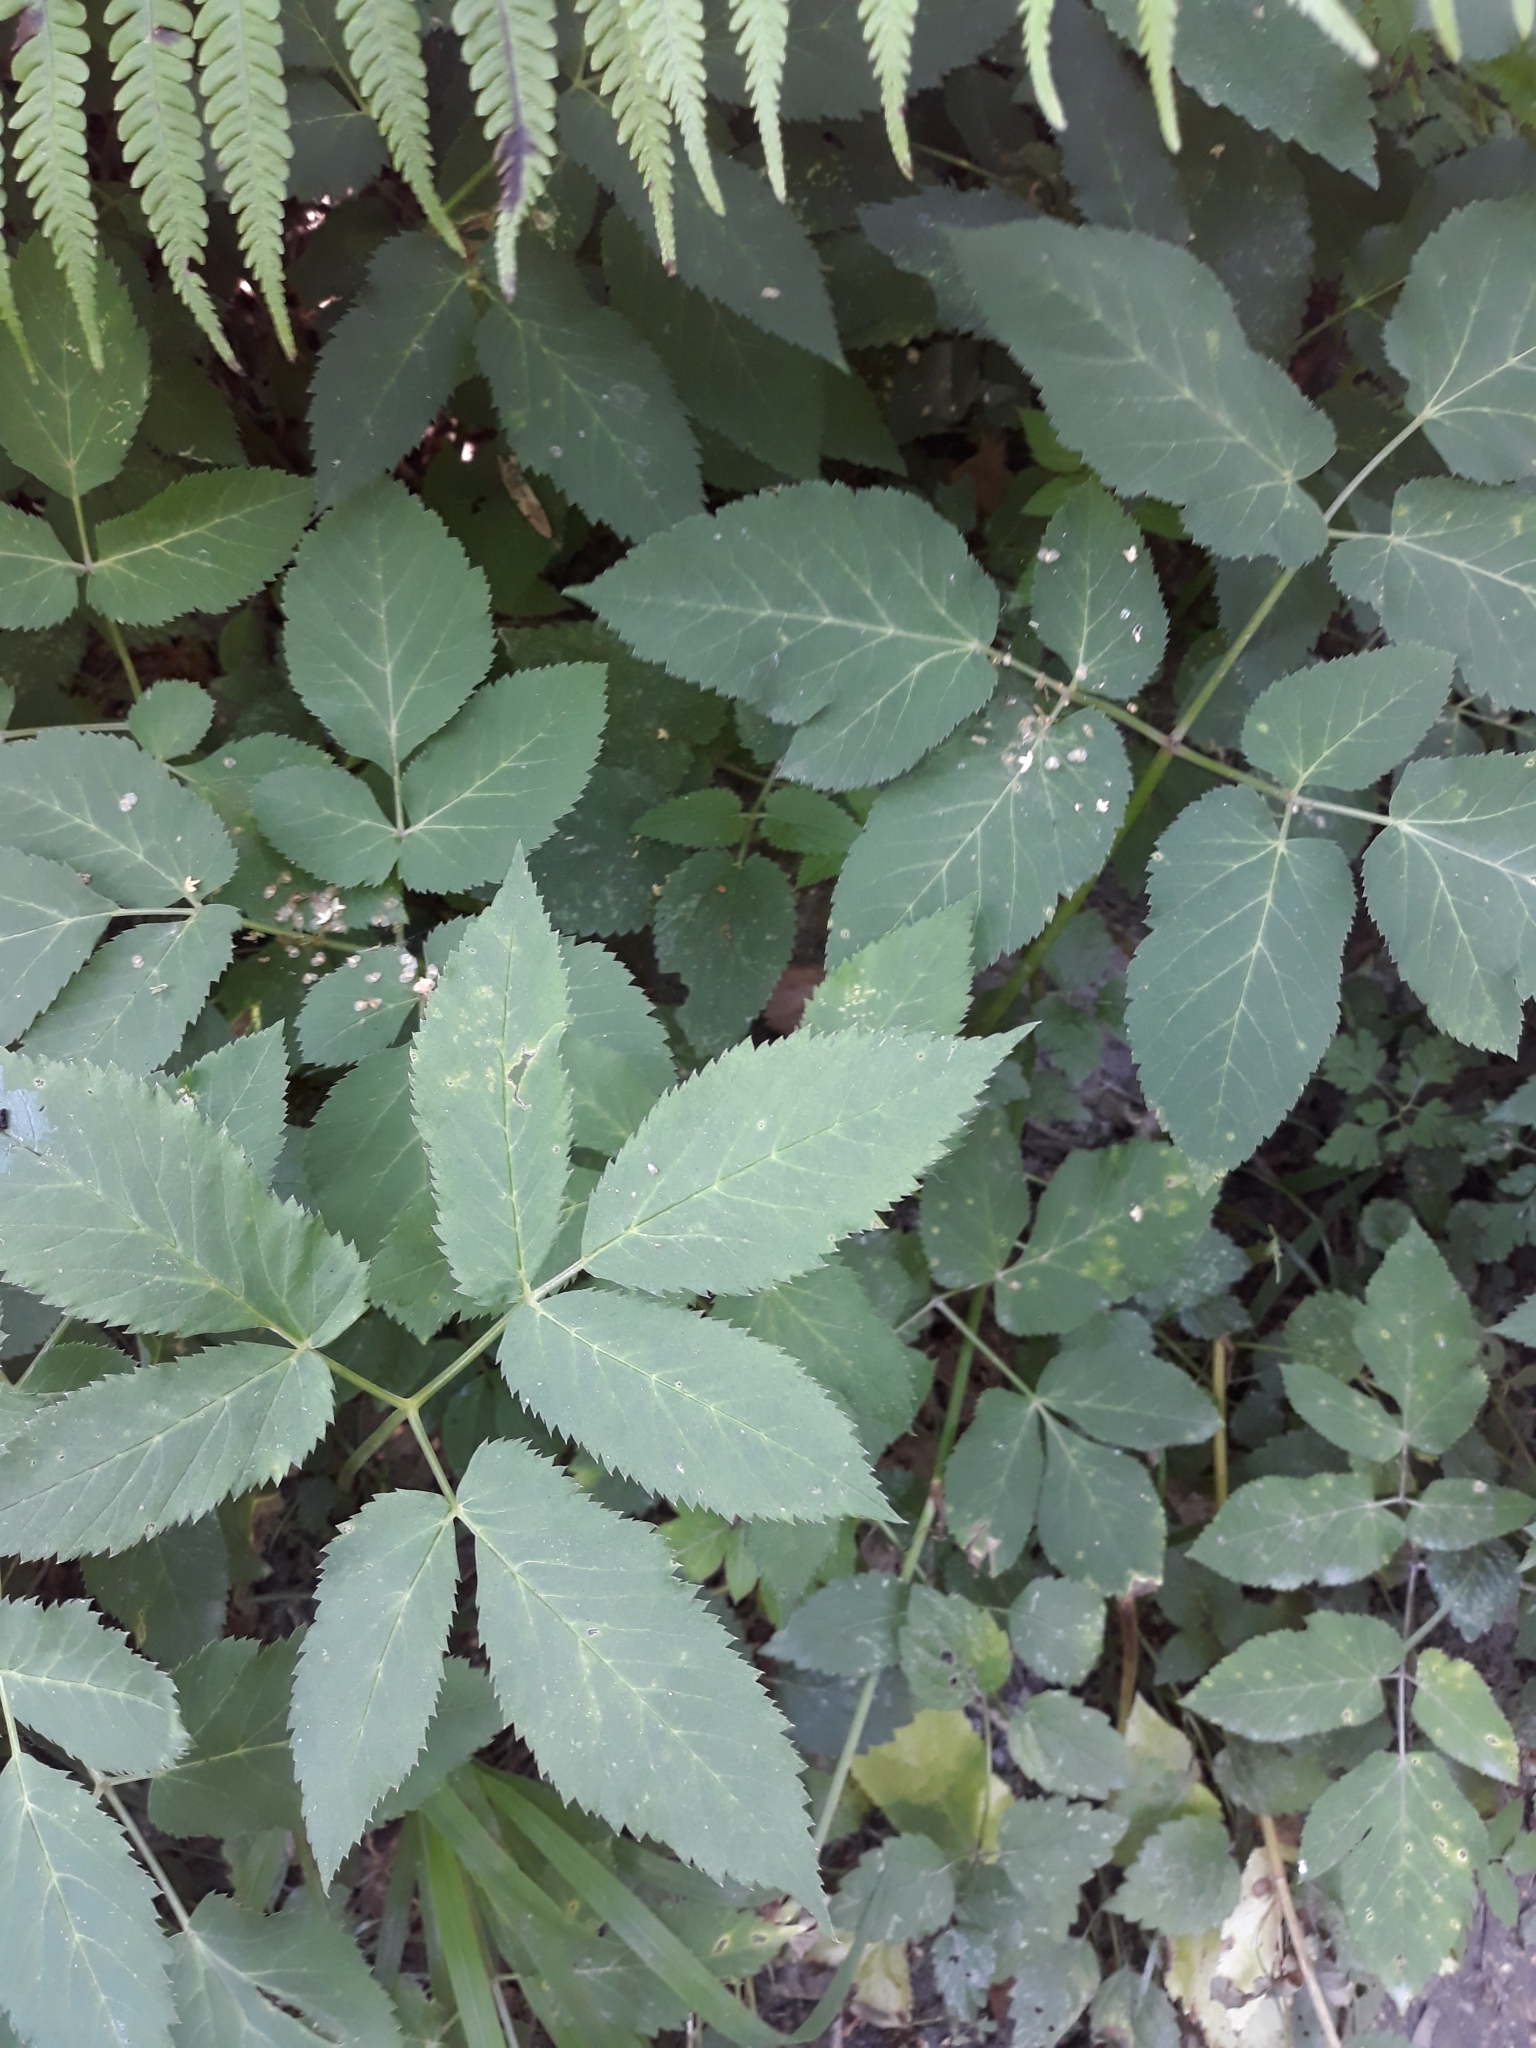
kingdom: Plantae
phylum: Tracheophyta
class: Magnoliopsida
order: Apiales
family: Apiaceae
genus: Aegopodium
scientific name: Aegopodium podagraria
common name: Ground-elder
